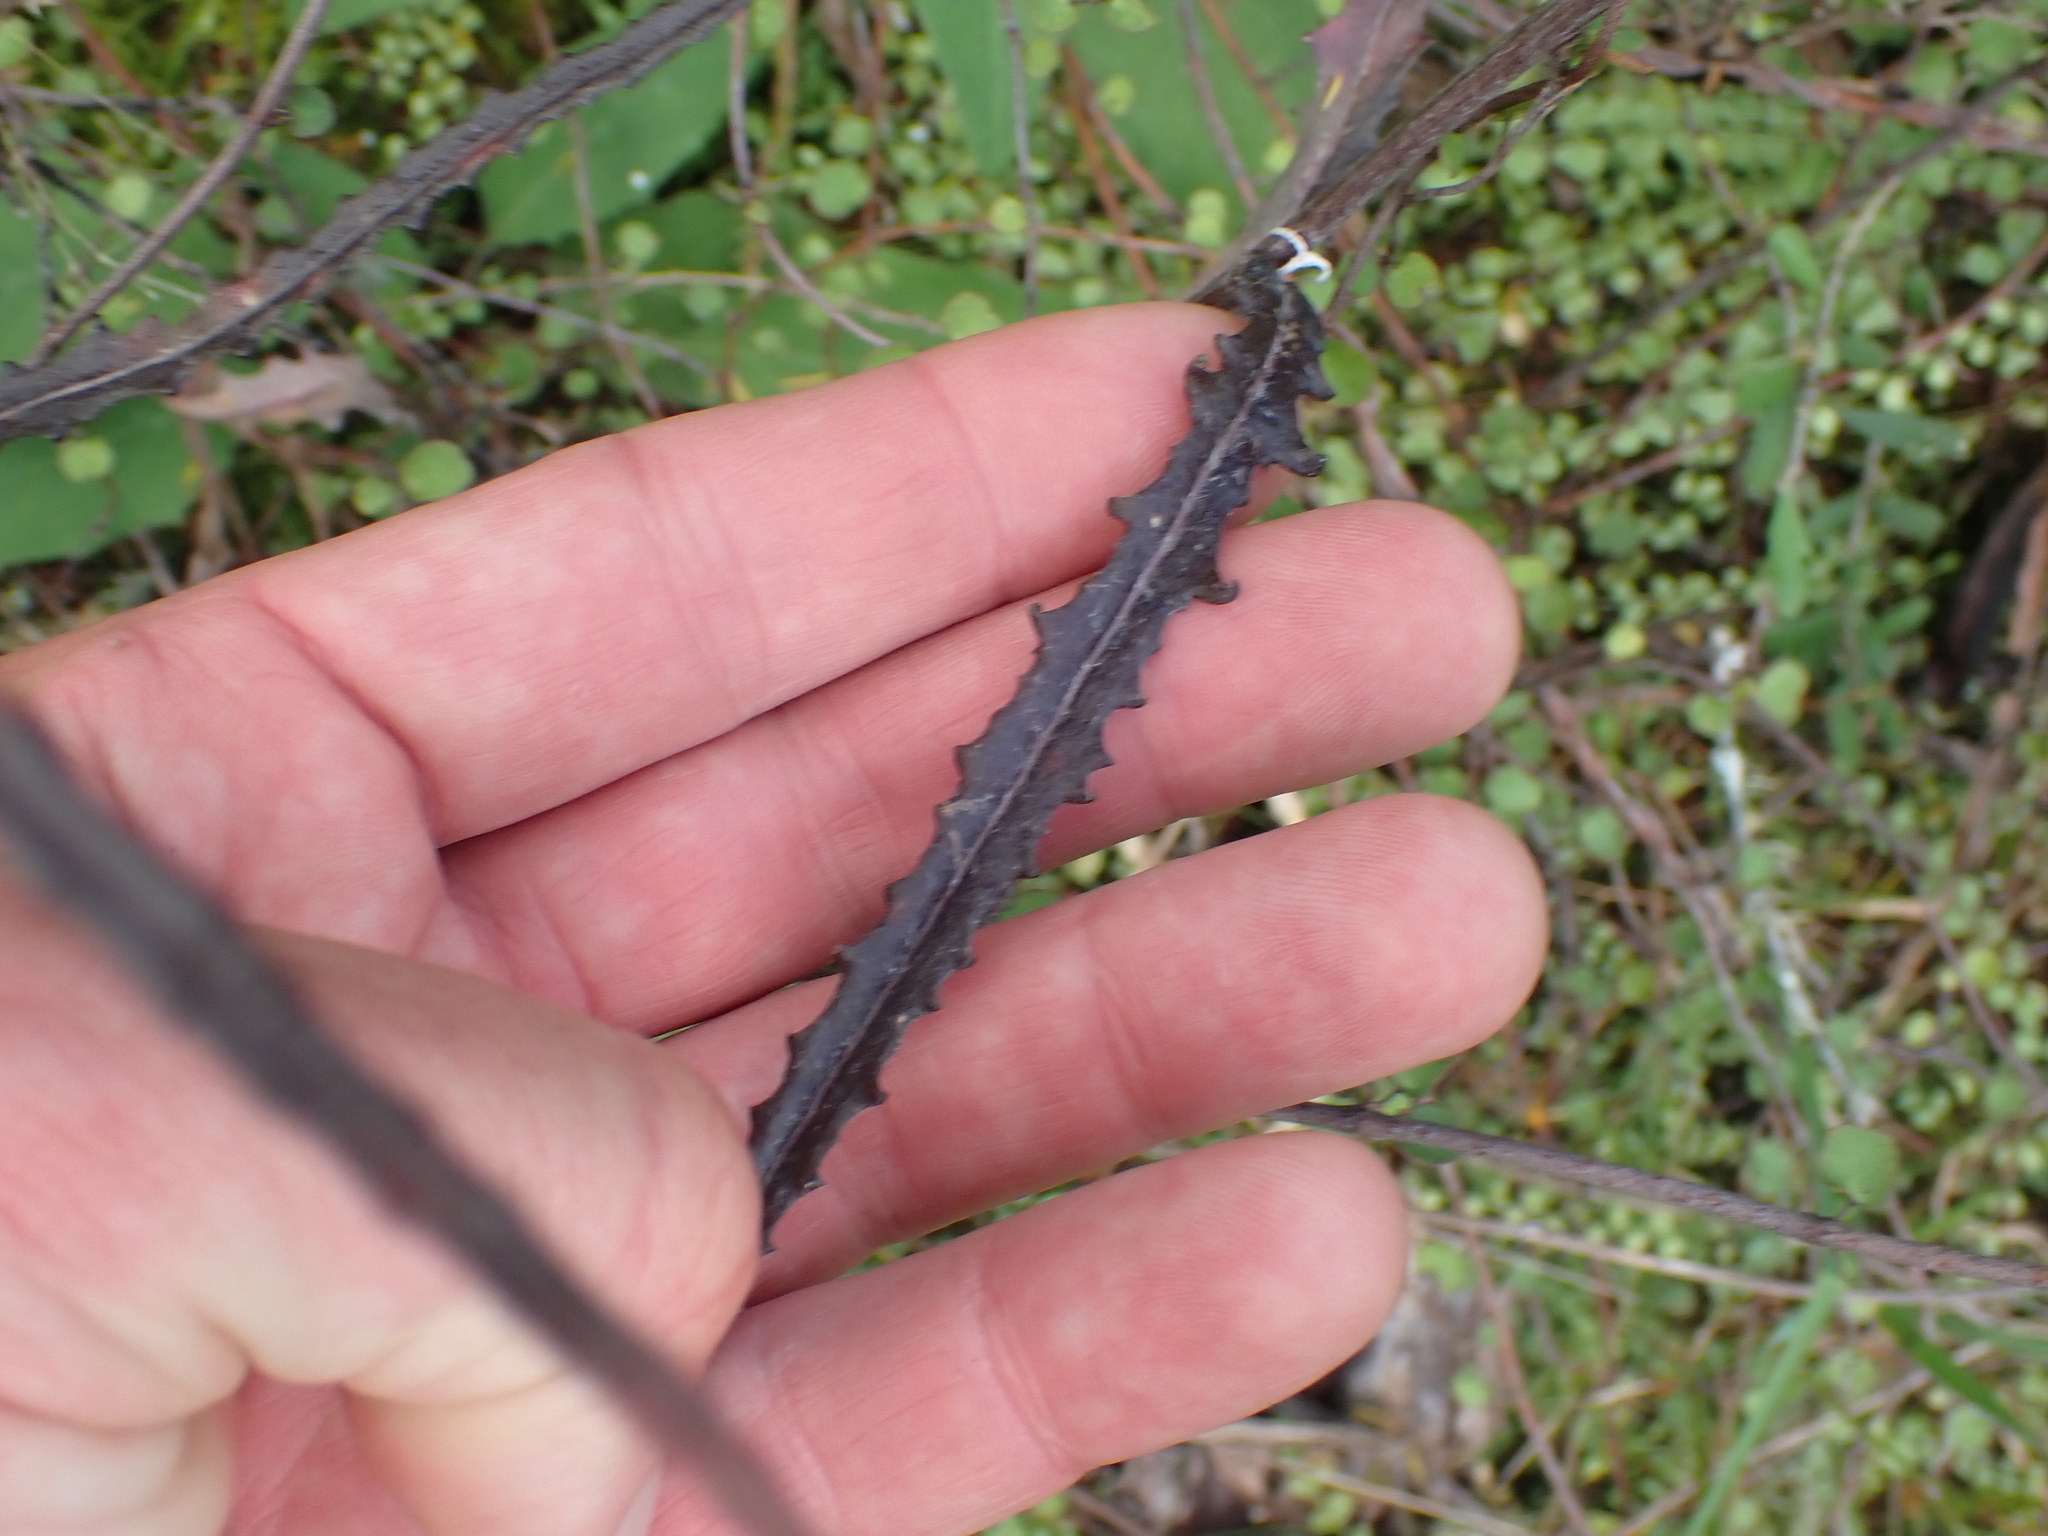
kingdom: Plantae
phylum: Tracheophyta
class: Magnoliopsida
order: Asterales
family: Asteraceae
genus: Senecio
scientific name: Senecio dunedinensis
